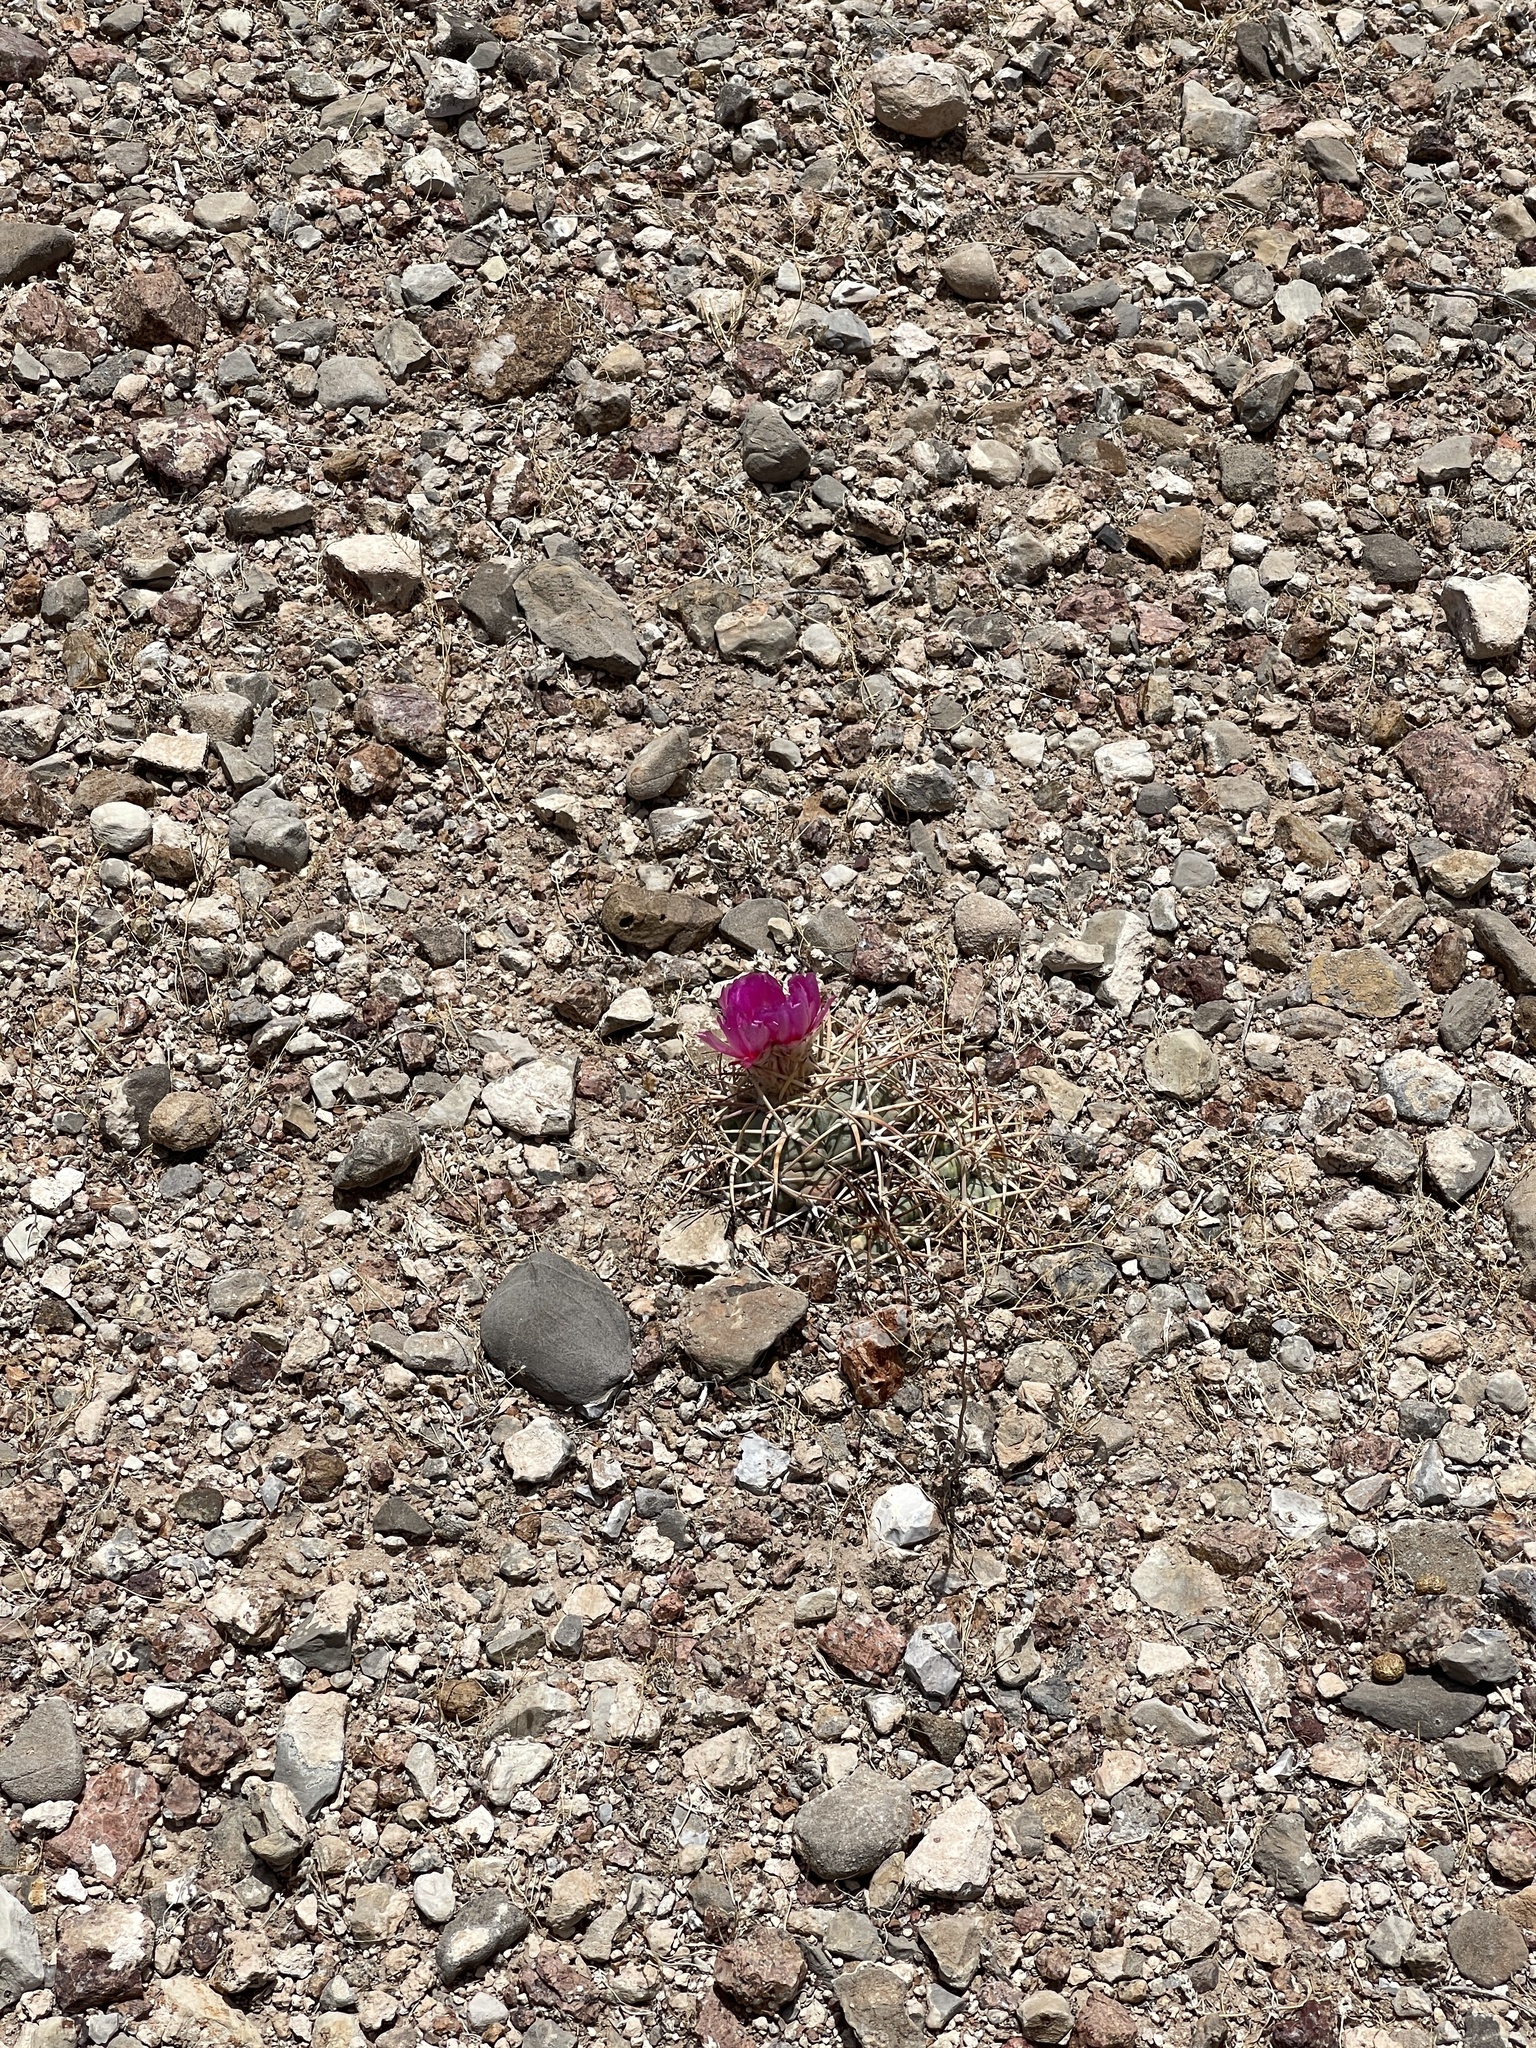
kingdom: Plantae
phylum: Tracheophyta
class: Magnoliopsida
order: Caryophyllales
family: Cactaceae
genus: Echinocactus
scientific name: Echinocactus horizonthalonius
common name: Devilshead
